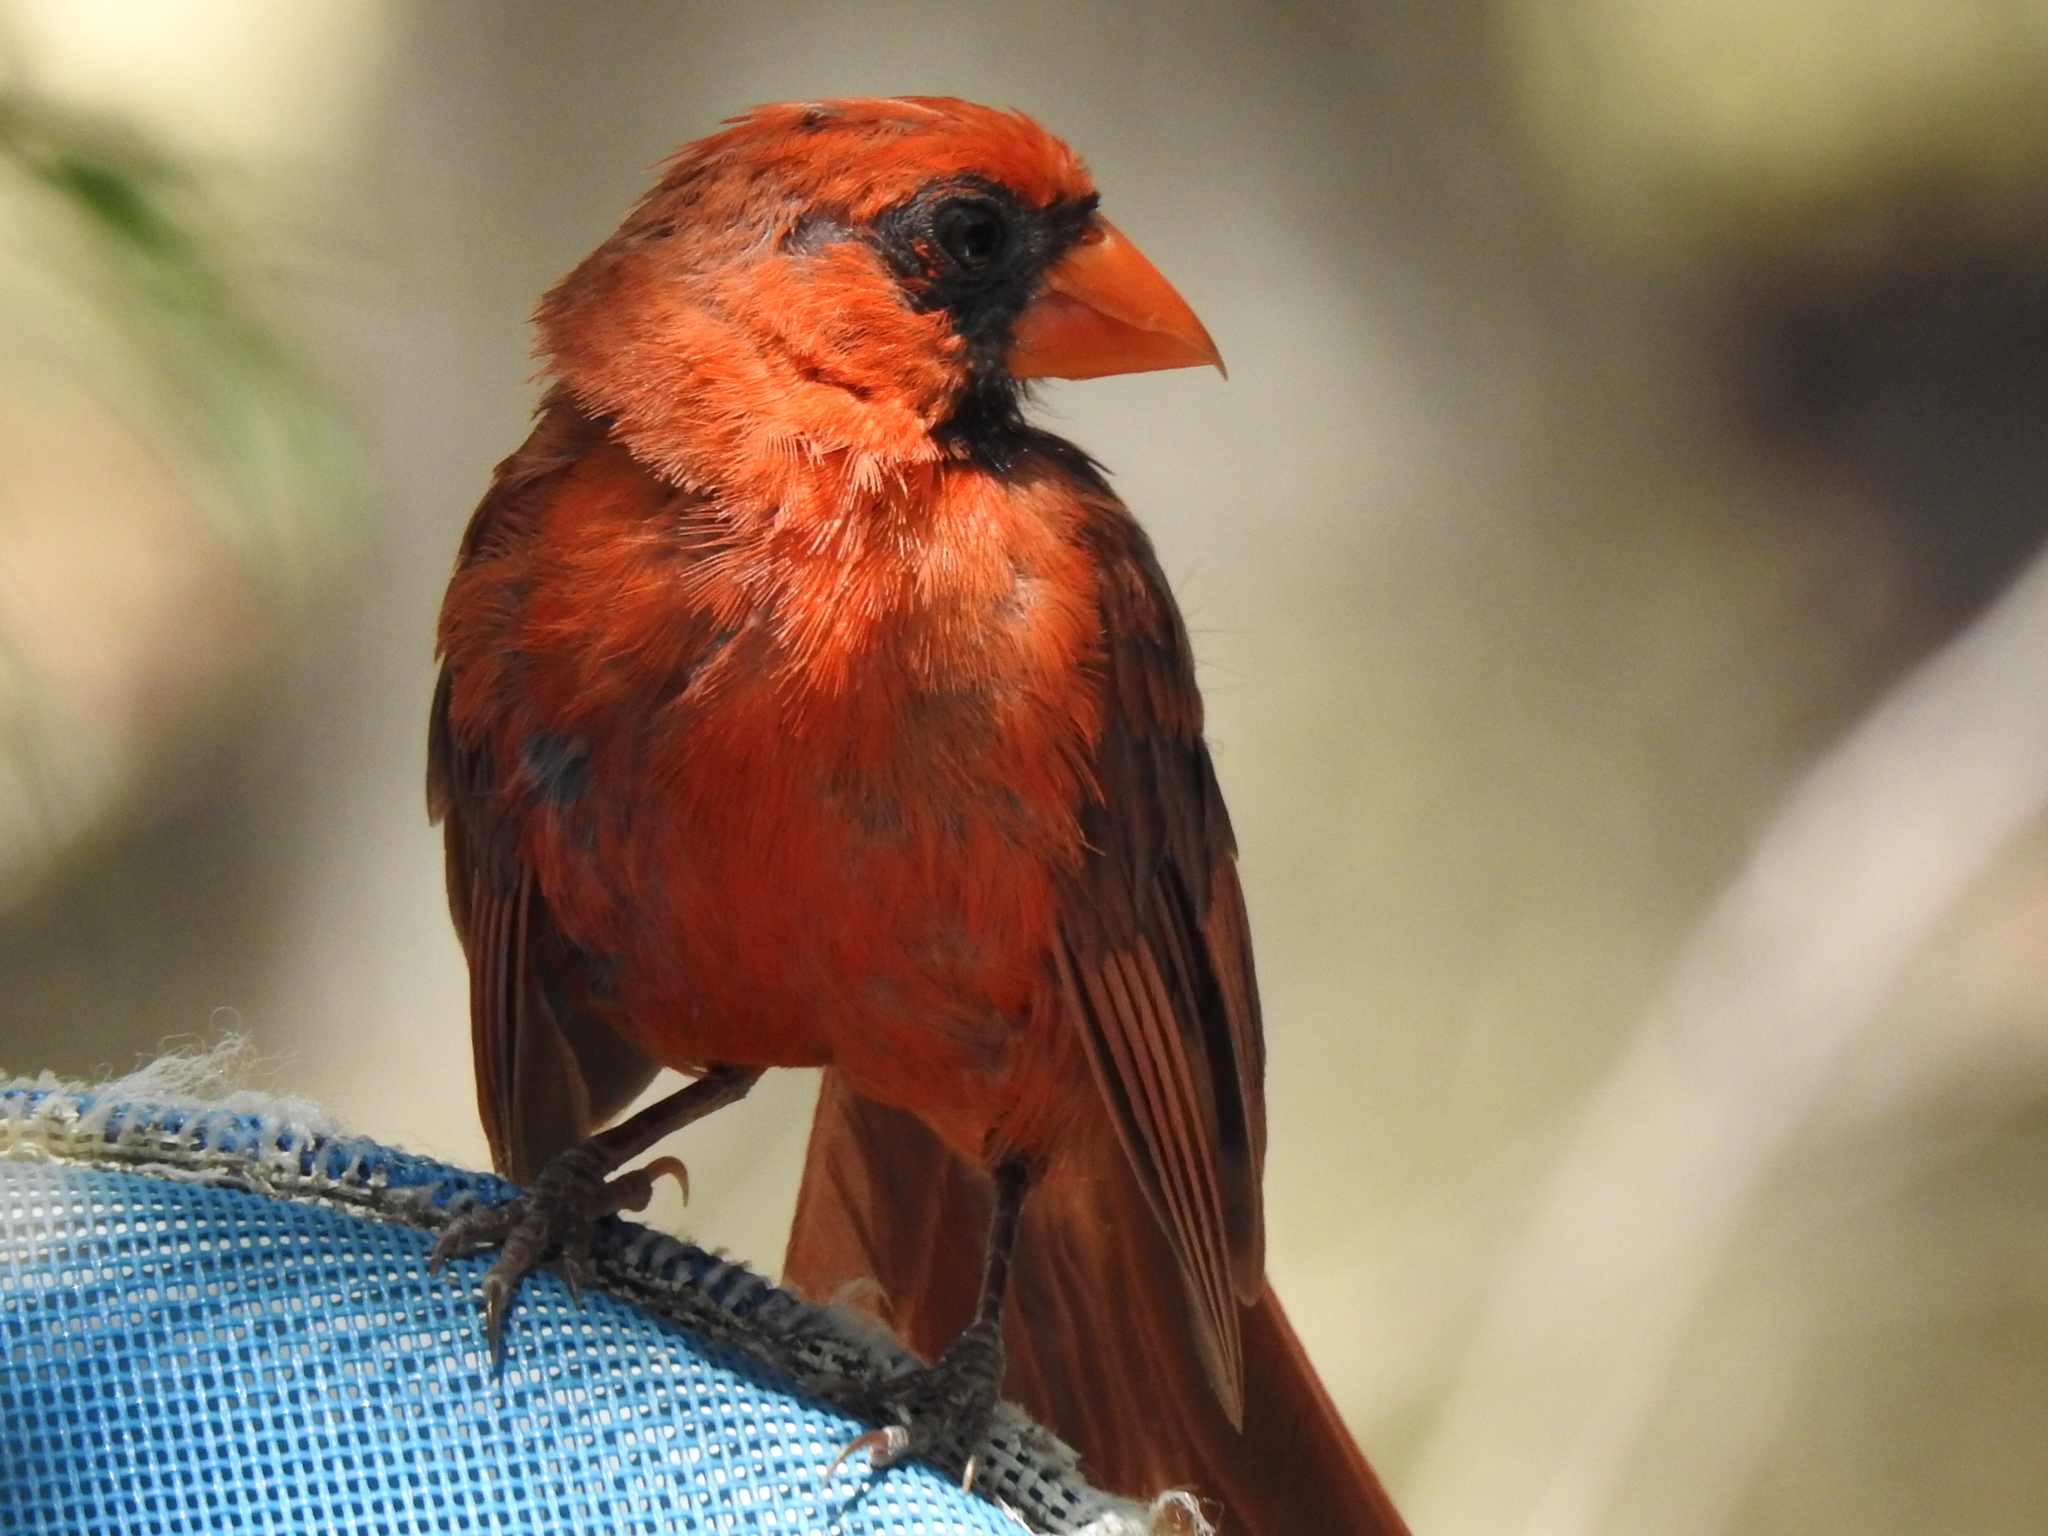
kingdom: Animalia
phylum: Chordata
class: Aves
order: Passeriformes
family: Cardinalidae
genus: Cardinalis
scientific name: Cardinalis cardinalis
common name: Northern cardinal
